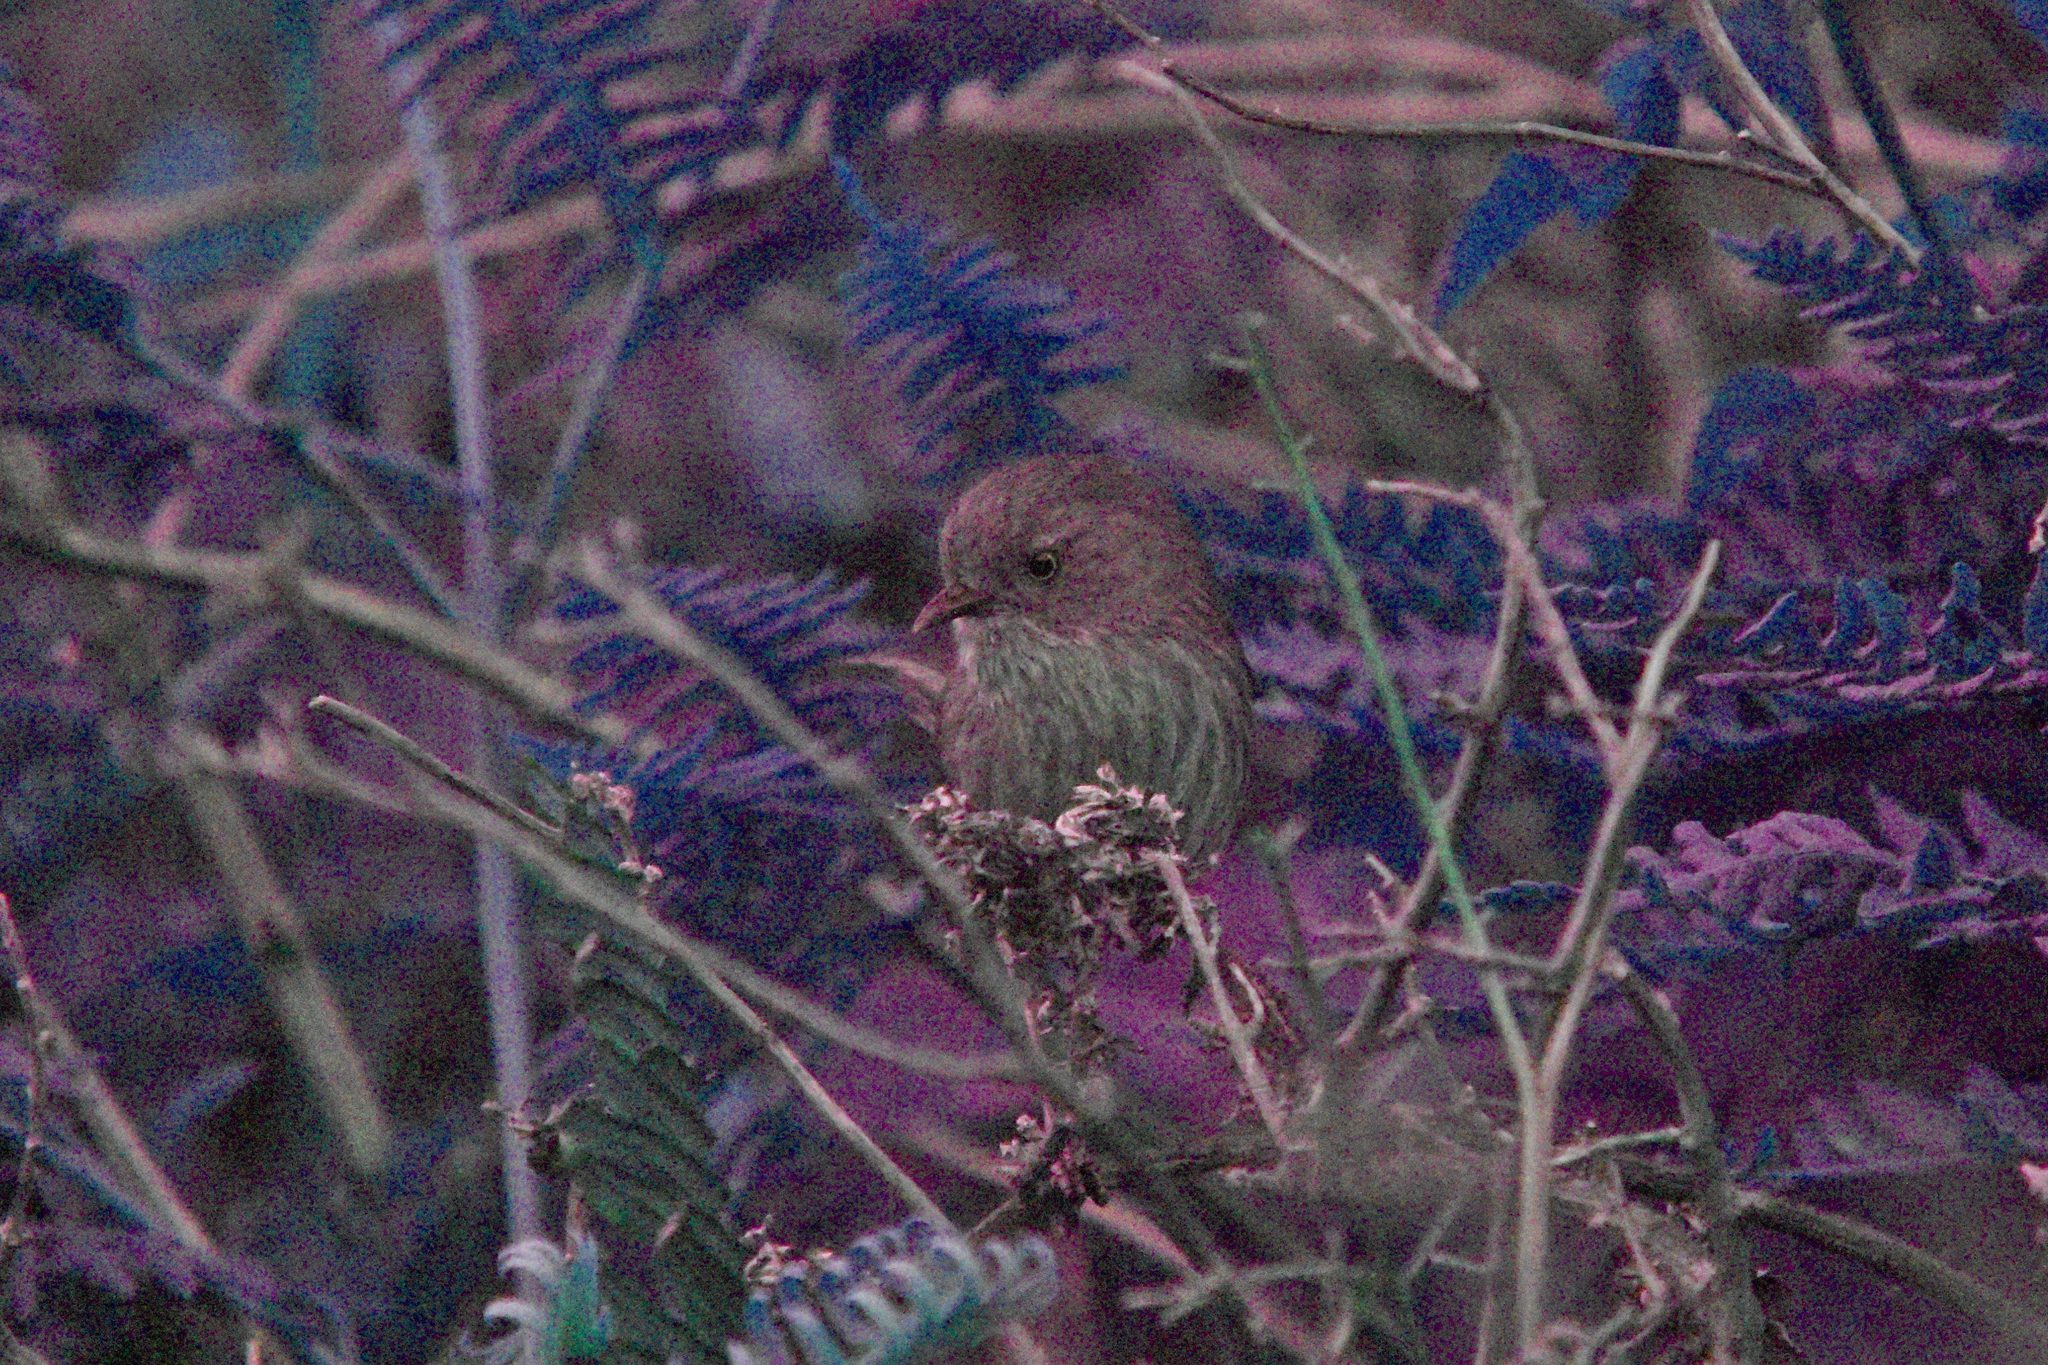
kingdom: Animalia
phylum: Chordata
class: Aves
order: Passeriformes
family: Sylviidae
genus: Chamaea
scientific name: Chamaea fasciata
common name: Wrentit
